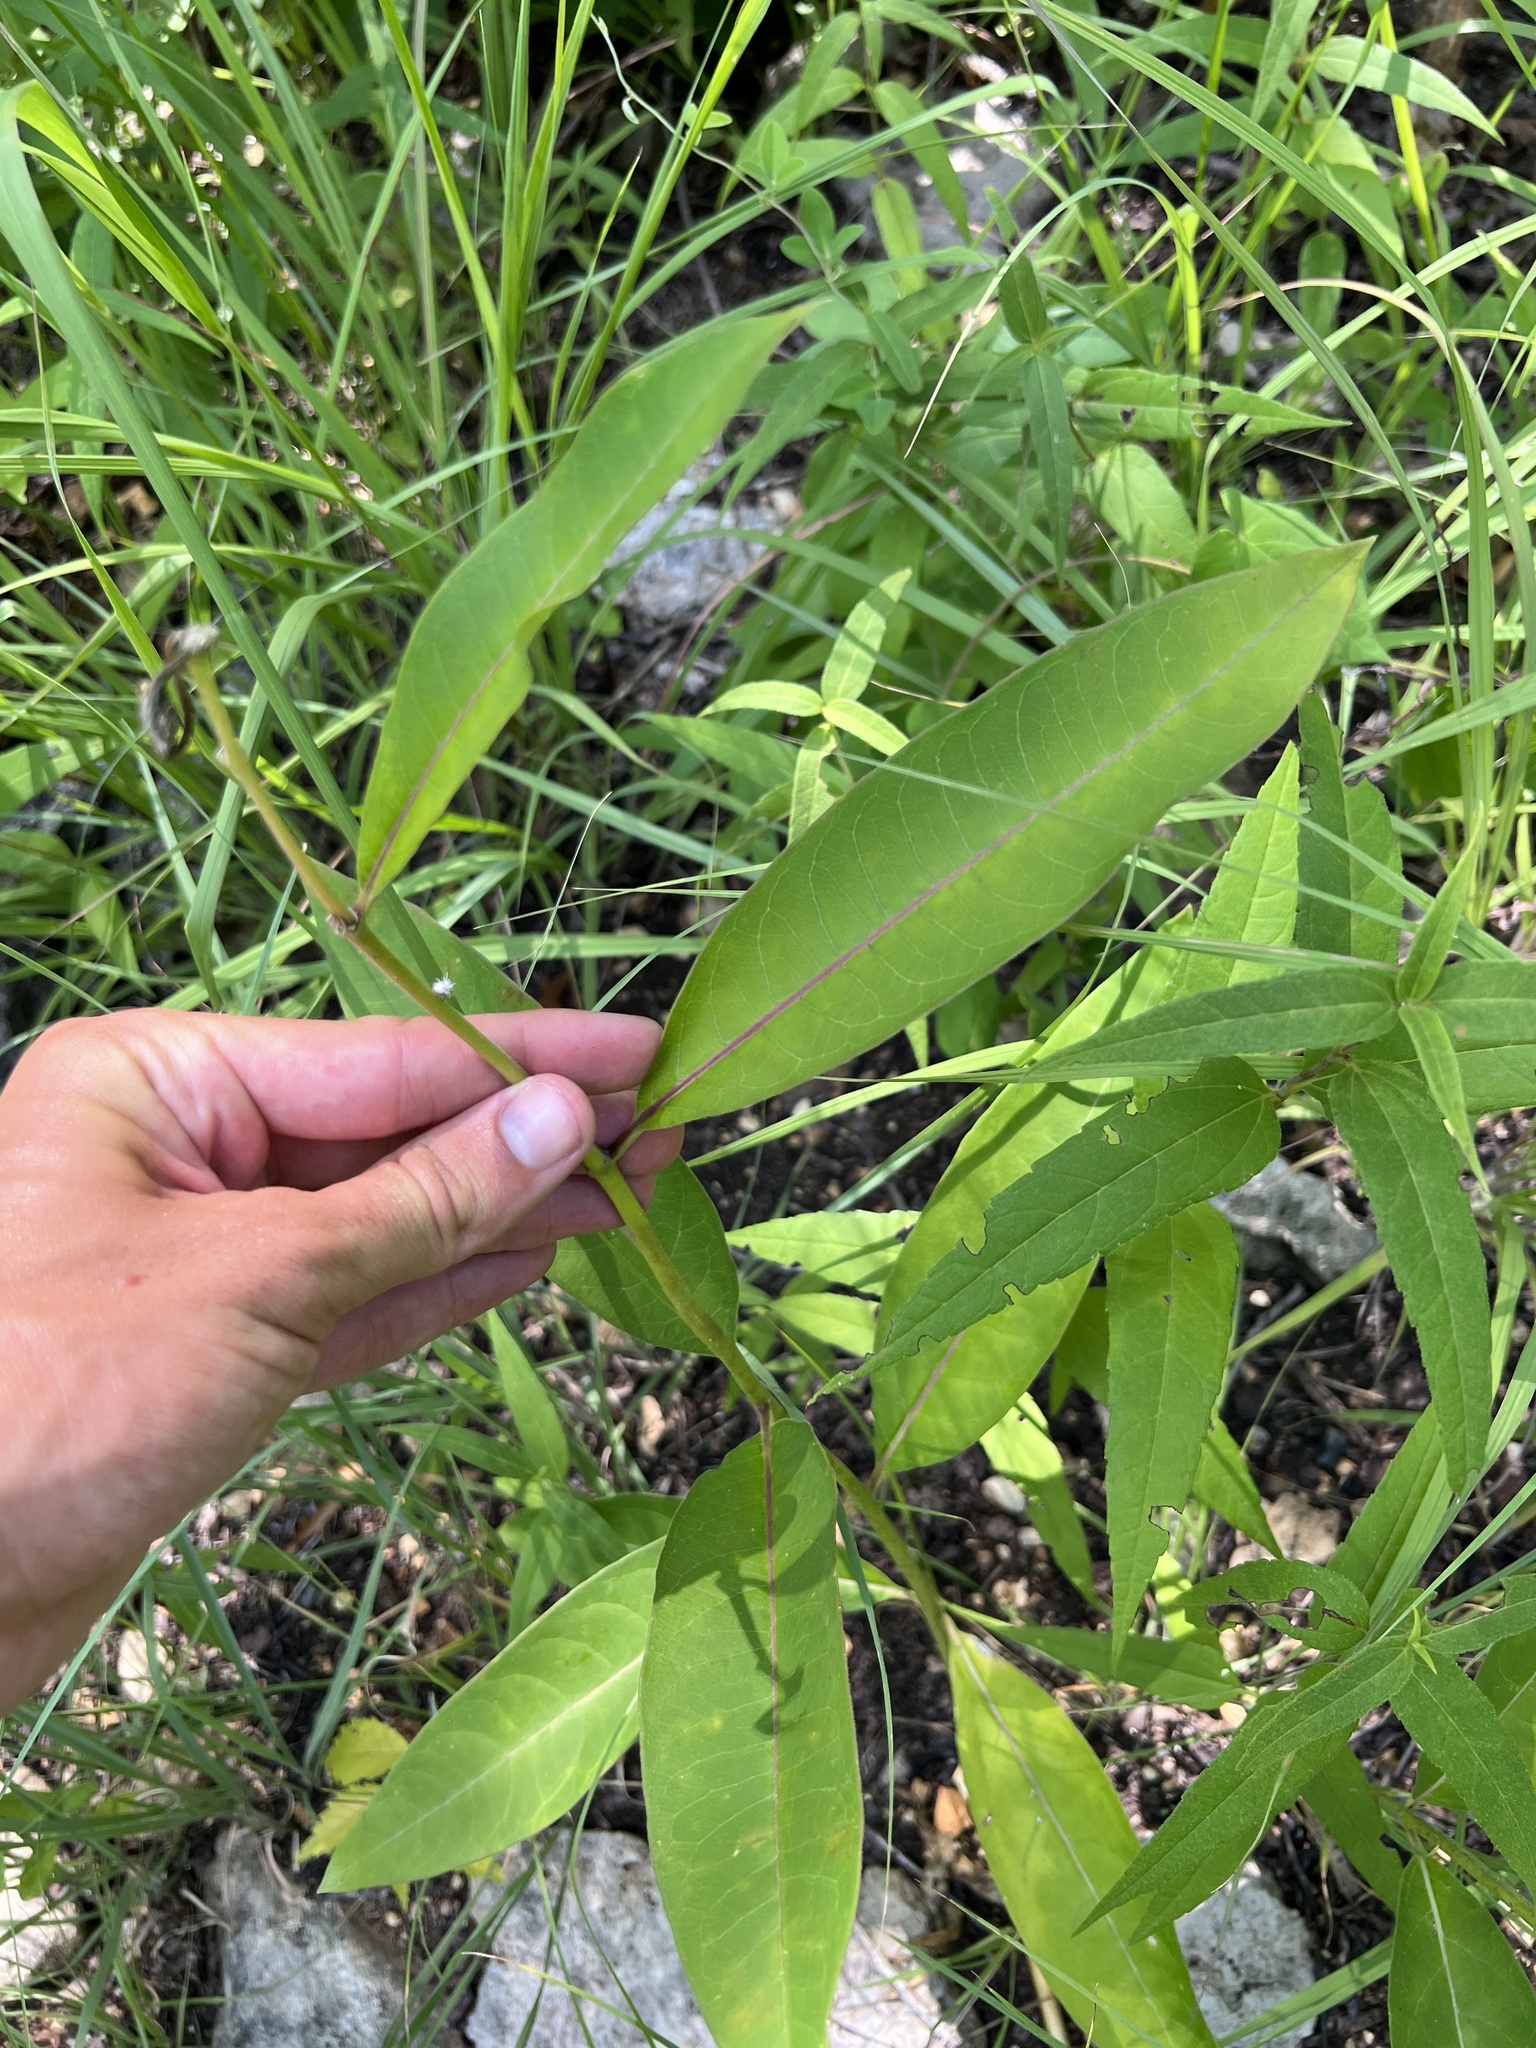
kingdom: Plantae
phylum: Tracheophyta
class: Magnoliopsida
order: Gentianales
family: Apocynaceae
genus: Asclepias
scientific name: Asclepias purpurascens
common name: Purple milkweed
